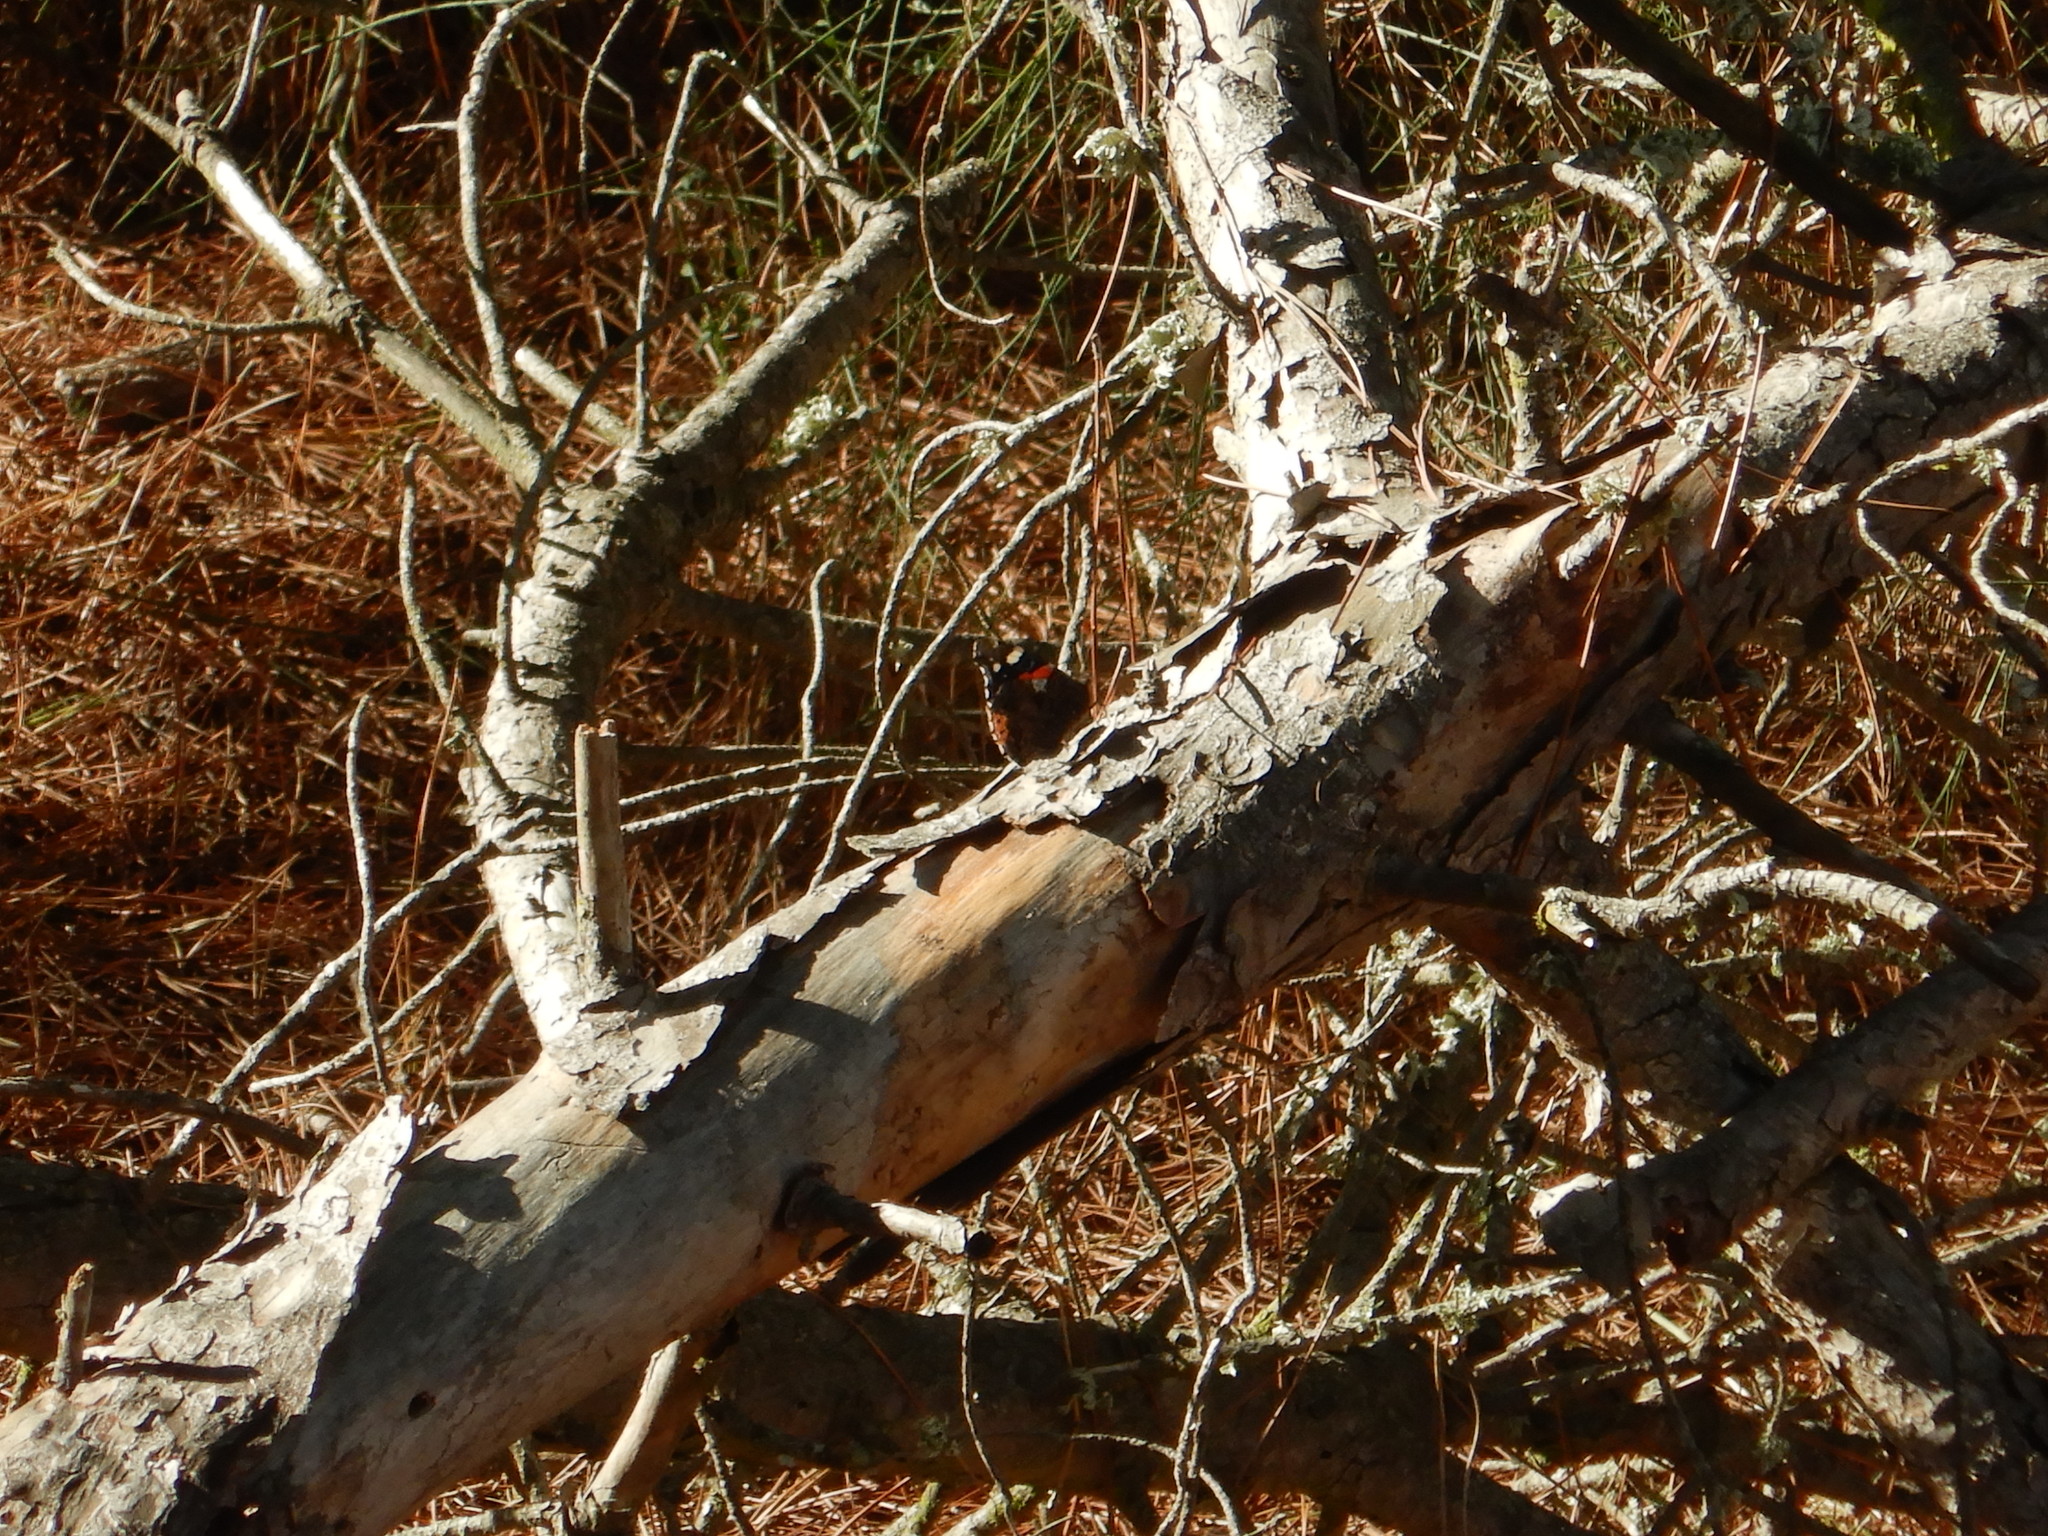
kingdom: Animalia
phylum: Arthropoda
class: Insecta
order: Lepidoptera
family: Nymphalidae
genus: Vanessa
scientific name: Vanessa atalanta
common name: Red admiral
